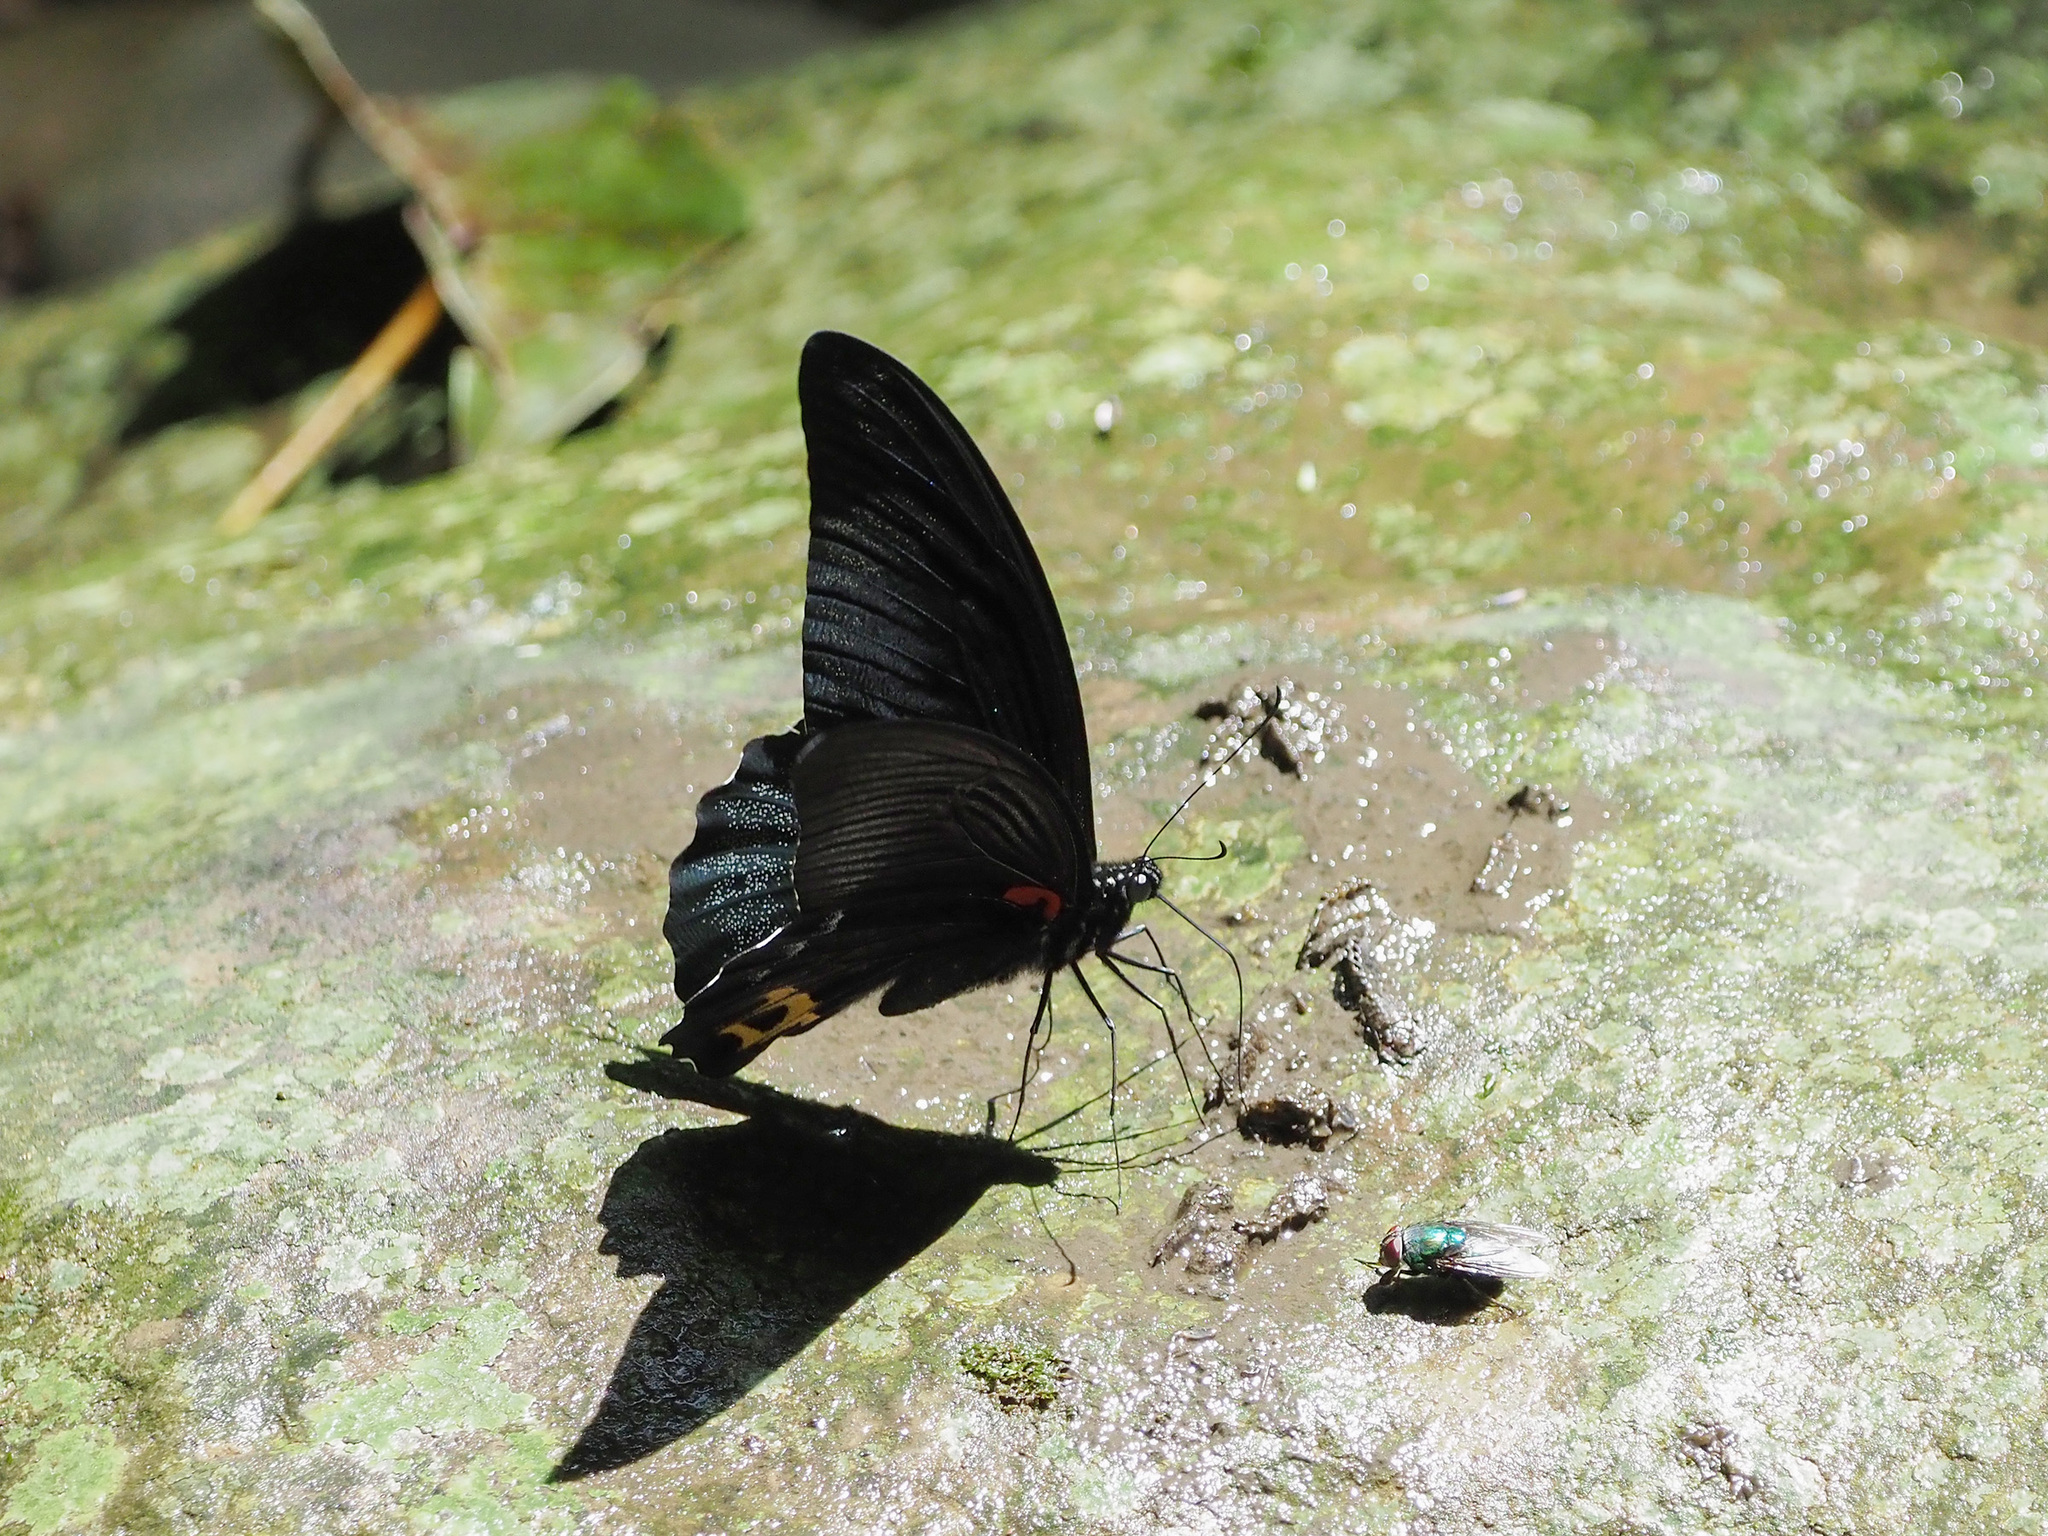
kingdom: Animalia
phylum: Arthropoda
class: Insecta
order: Lepidoptera
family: Papilionidae
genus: Papilio
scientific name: Papilio acheron
